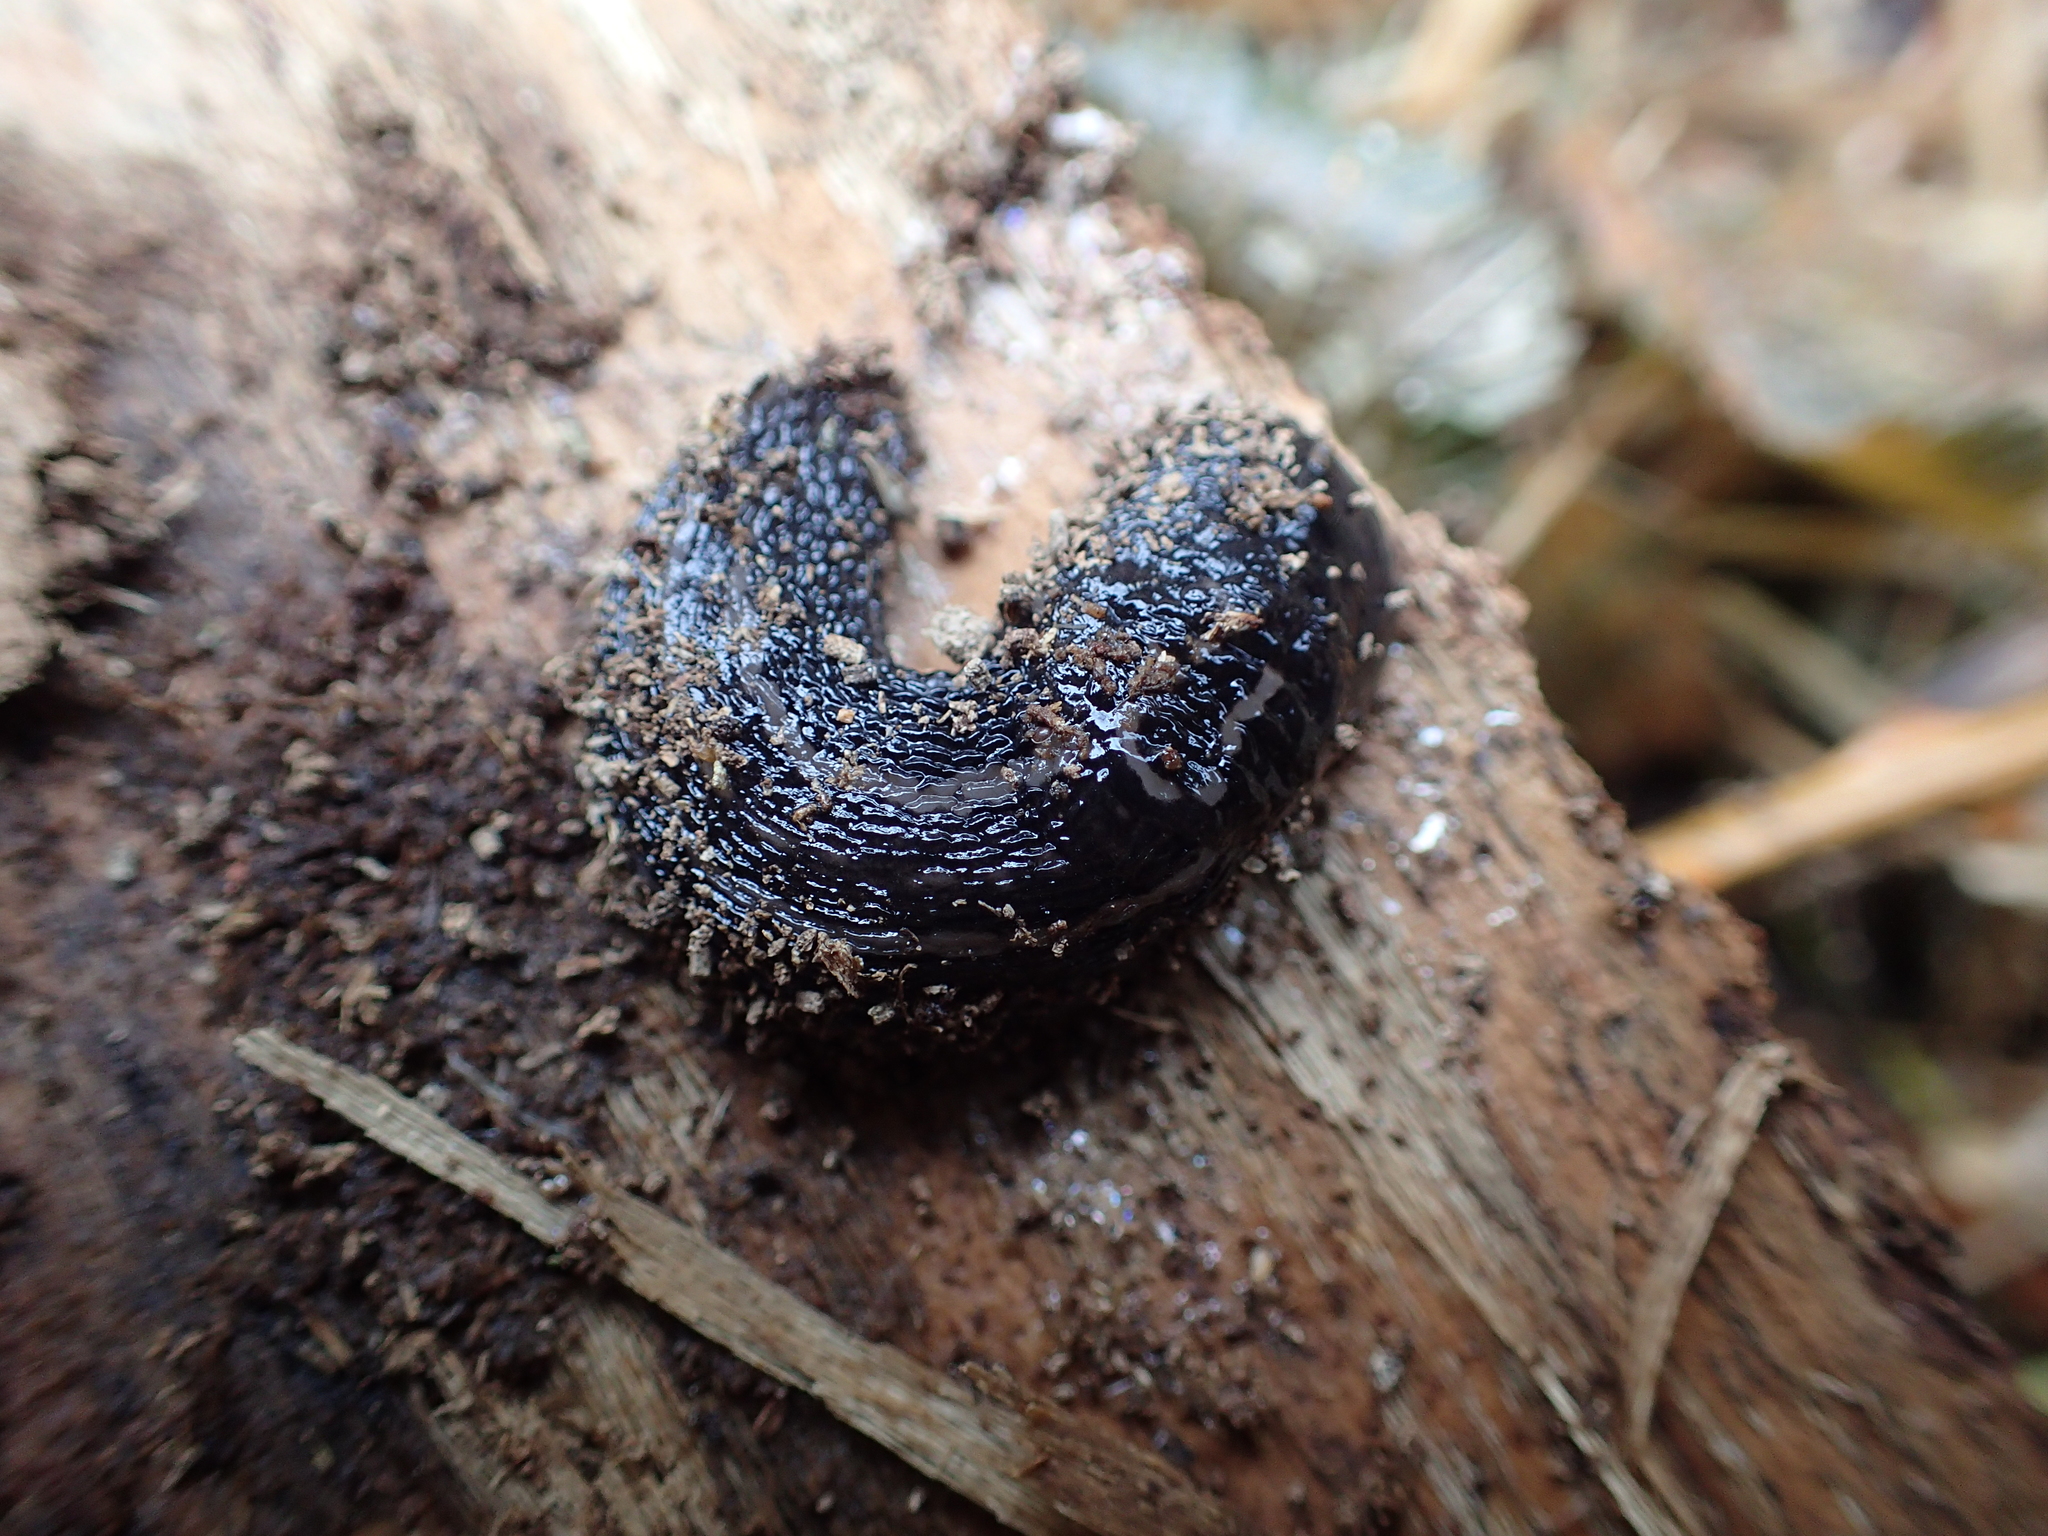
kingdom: Animalia
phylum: Mollusca
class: Gastropoda
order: Stylommatophora
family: Limacidae
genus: Limax
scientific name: Limax maximus
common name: Great grey slug
